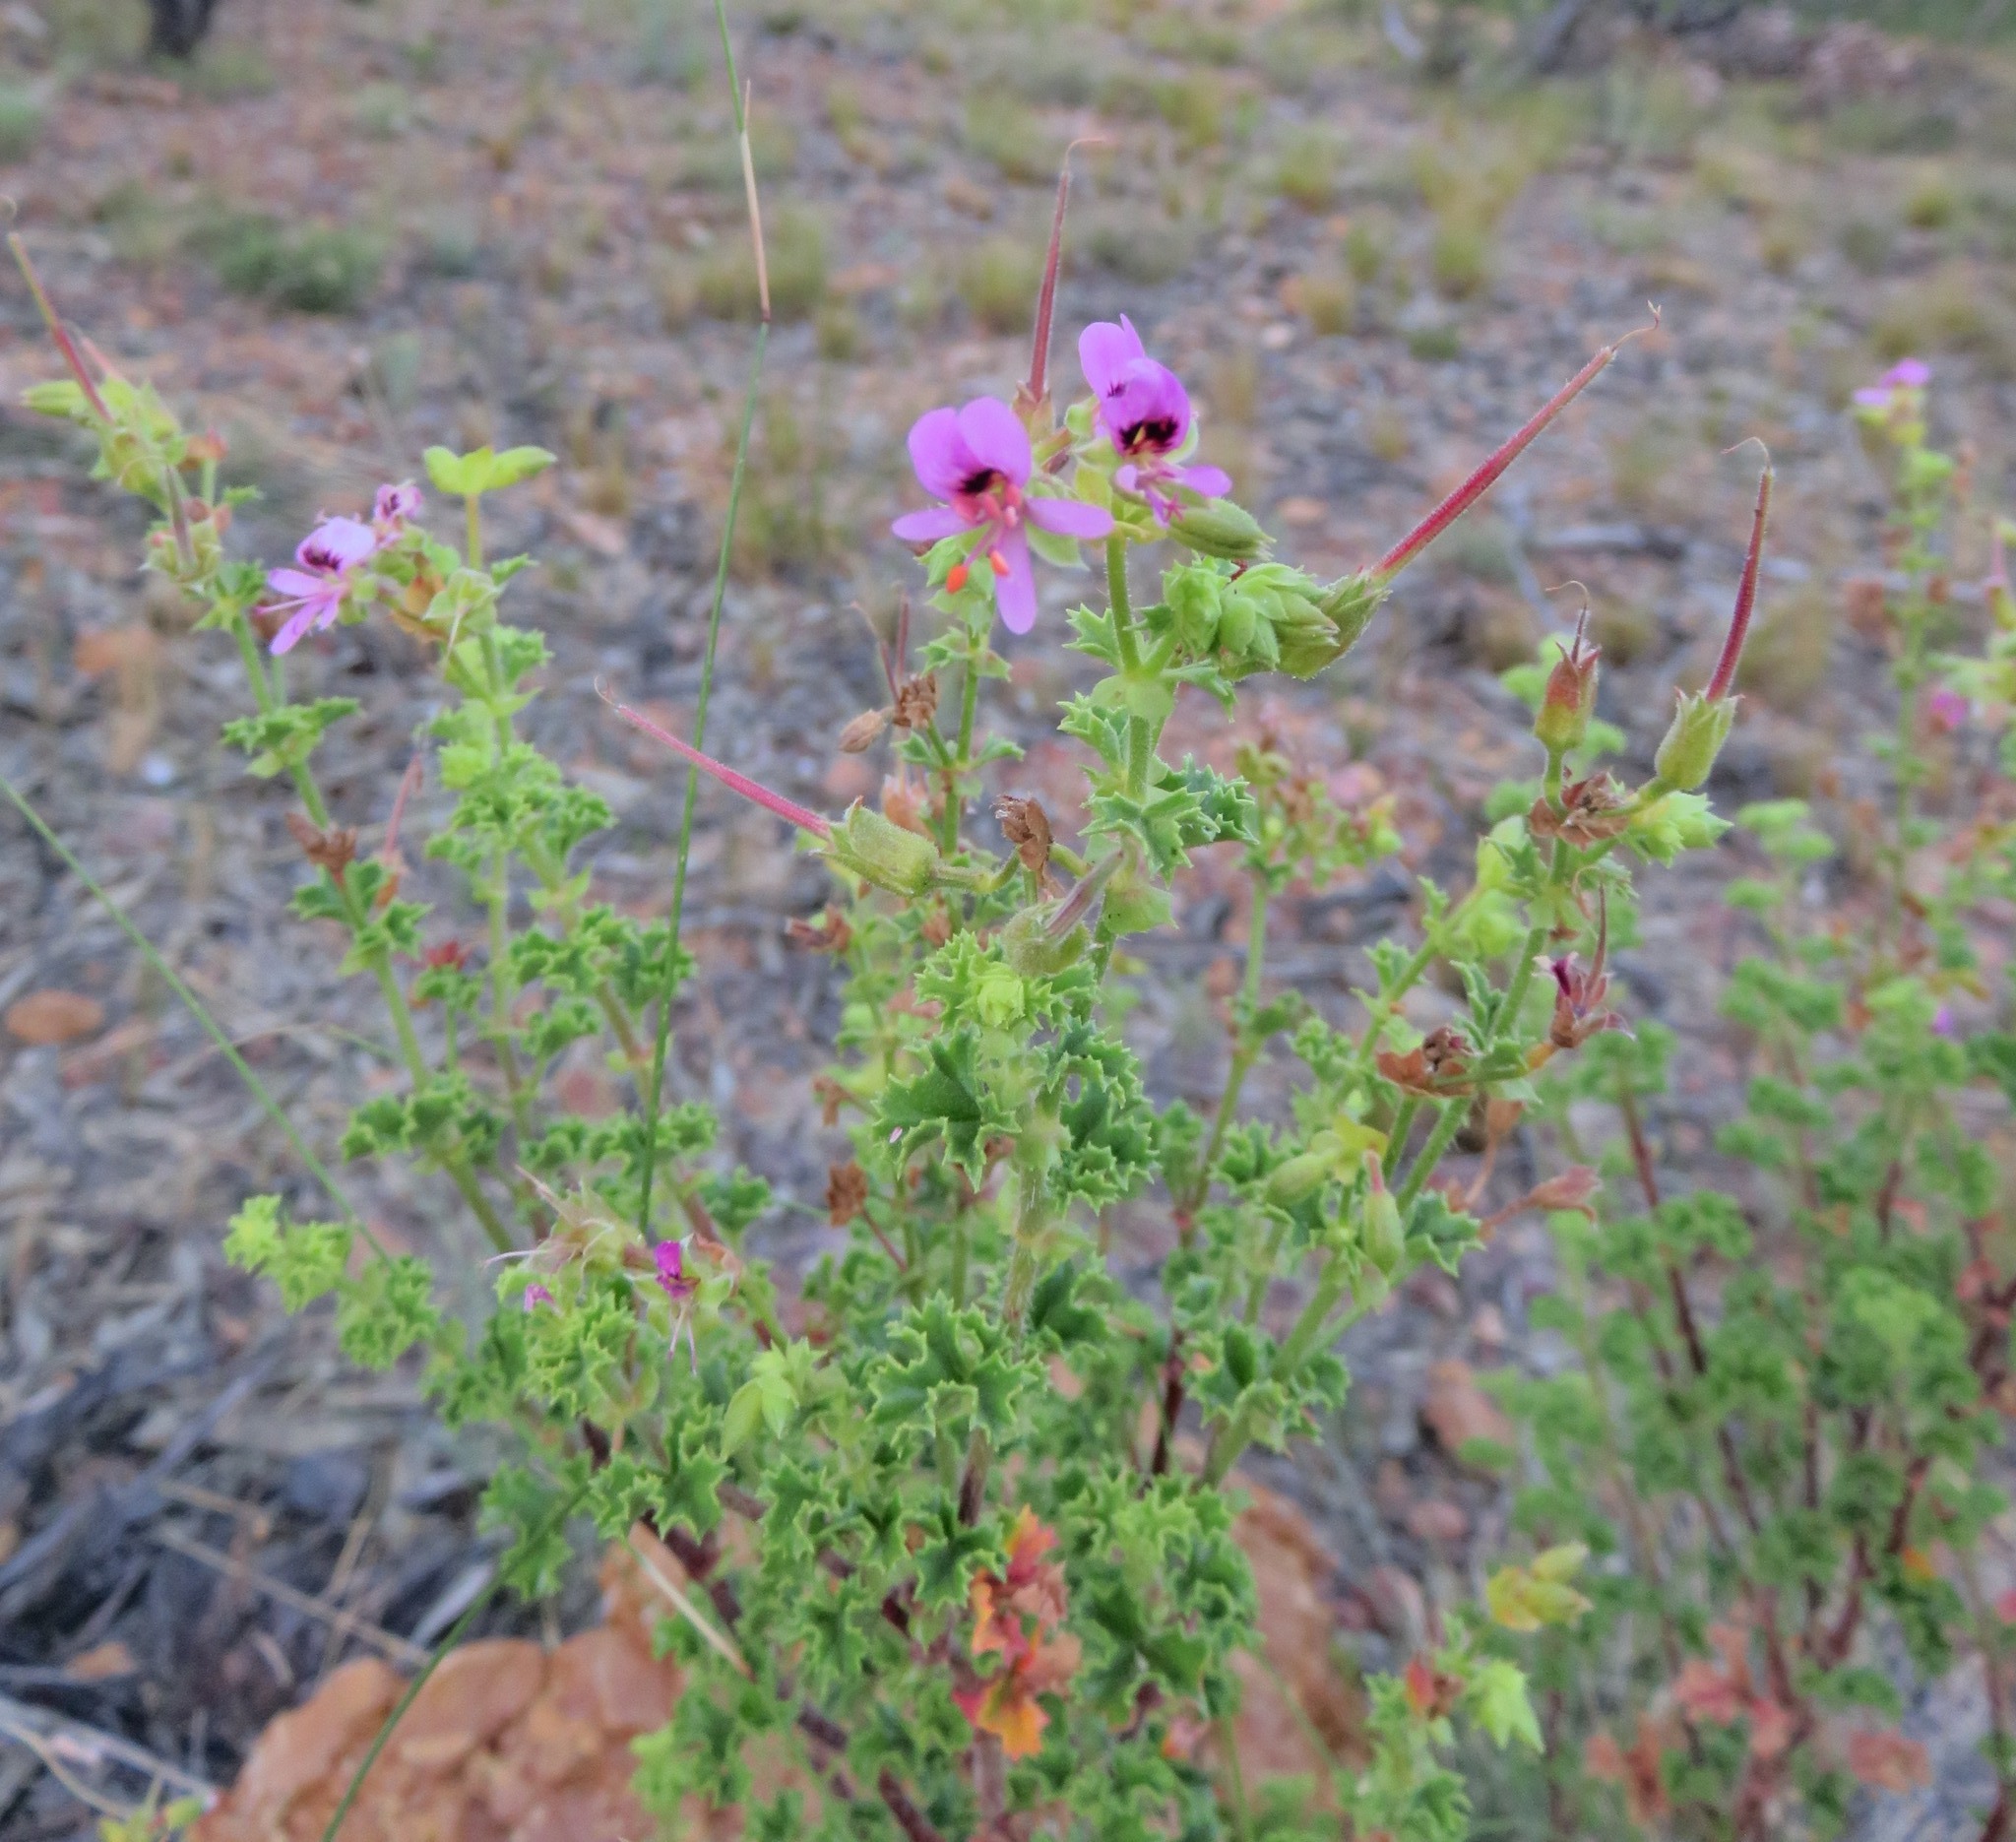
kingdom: Plantae
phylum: Tracheophyta
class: Magnoliopsida
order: Geraniales
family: Geraniaceae
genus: Pelargonium
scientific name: Pelargonium englerianum
